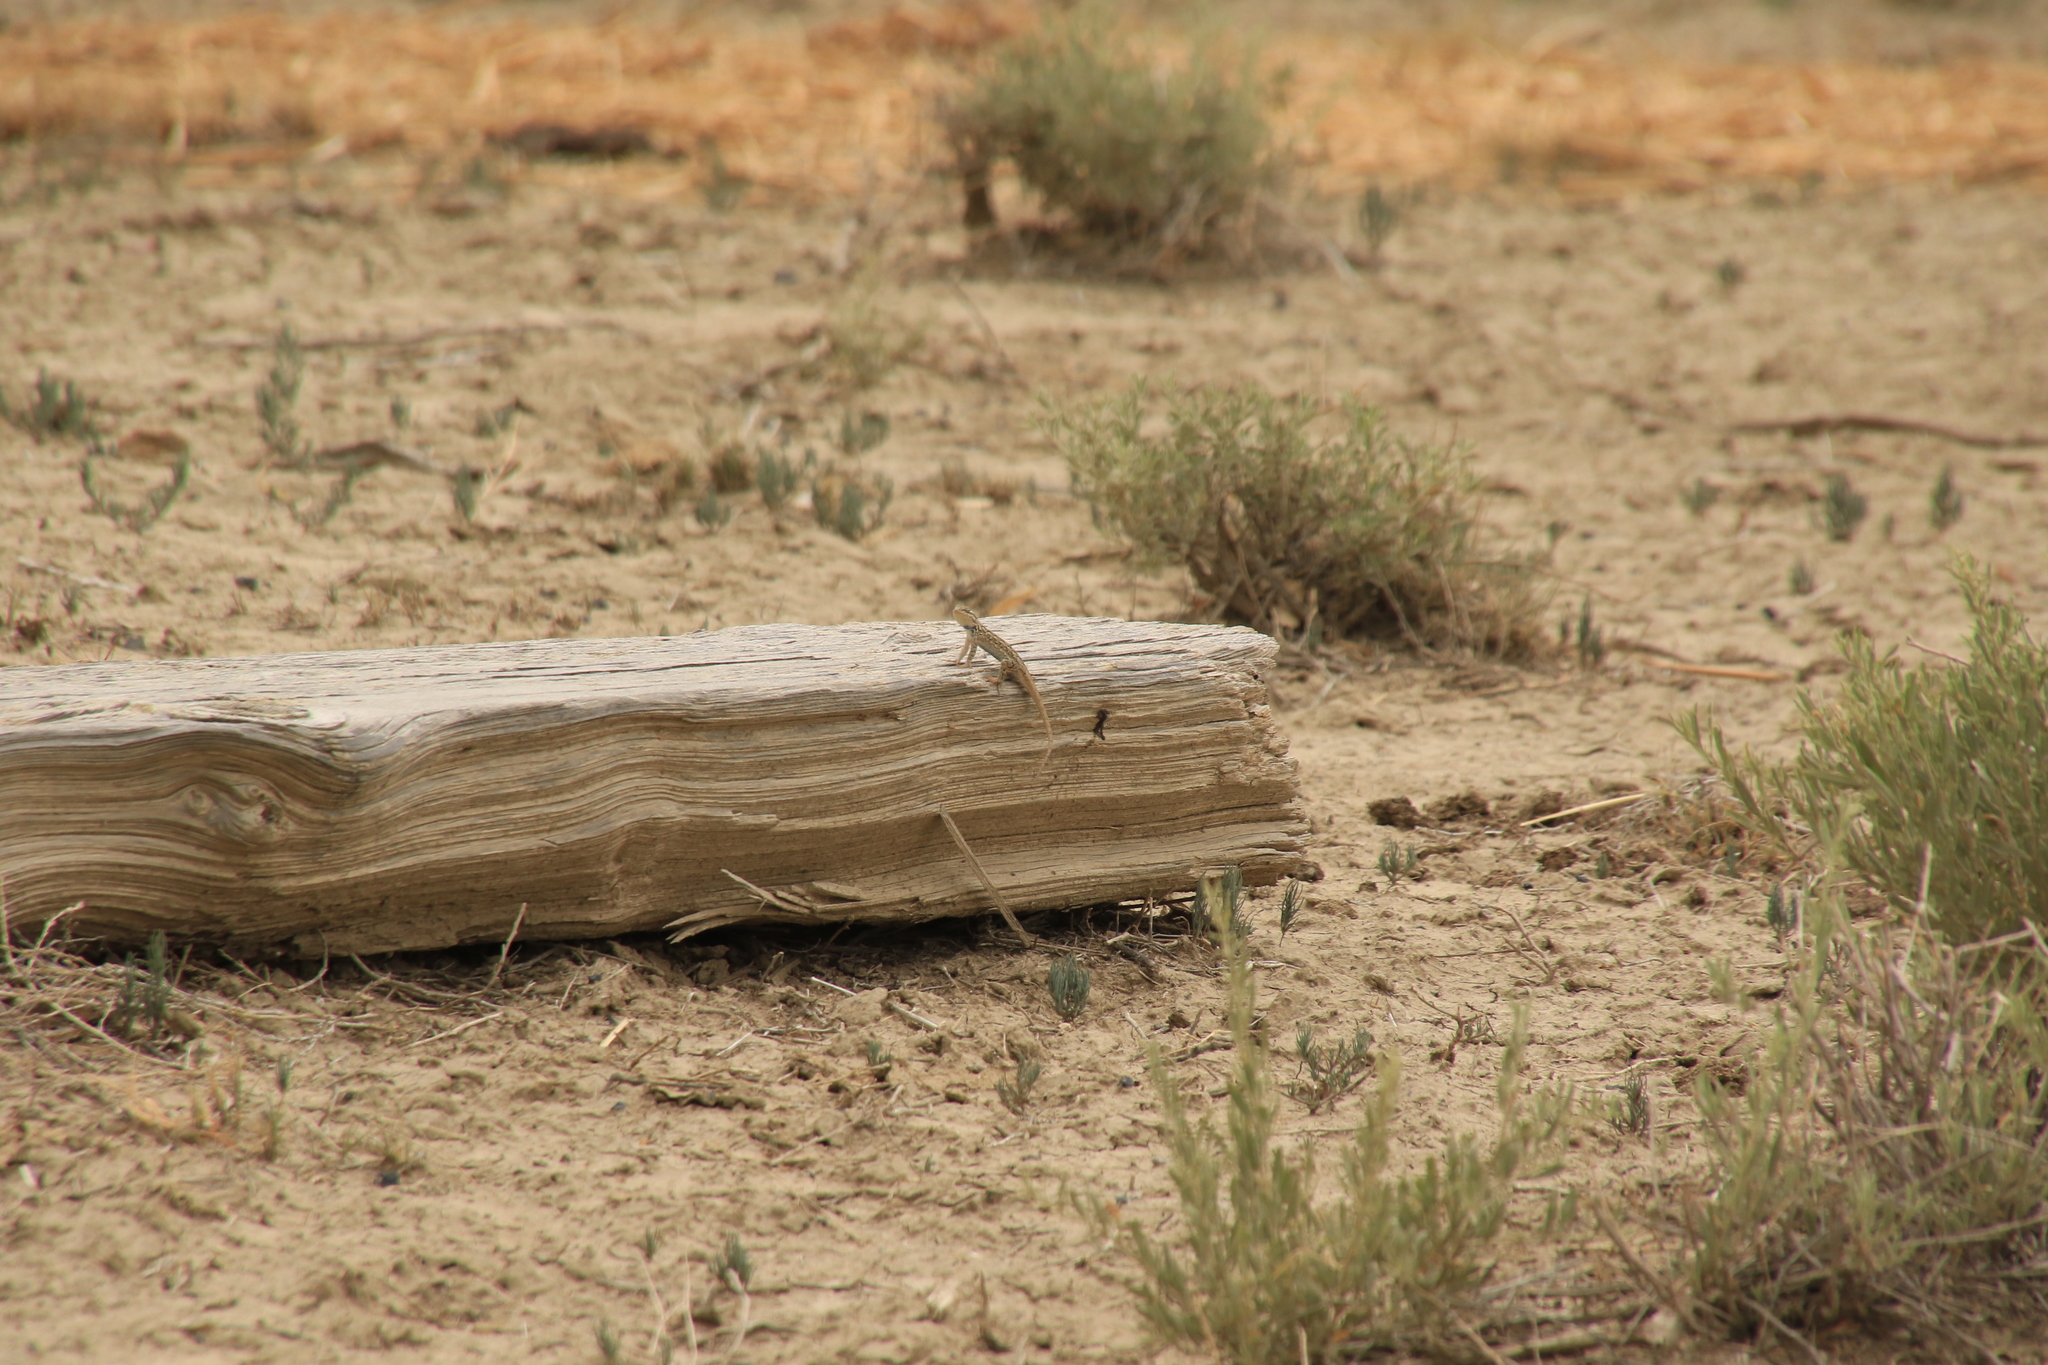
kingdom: Animalia
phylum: Chordata
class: Squamata
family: Phrynosomatidae
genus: Sceloporus
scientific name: Sceloporus consobrinus
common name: Southern prairie lizard
